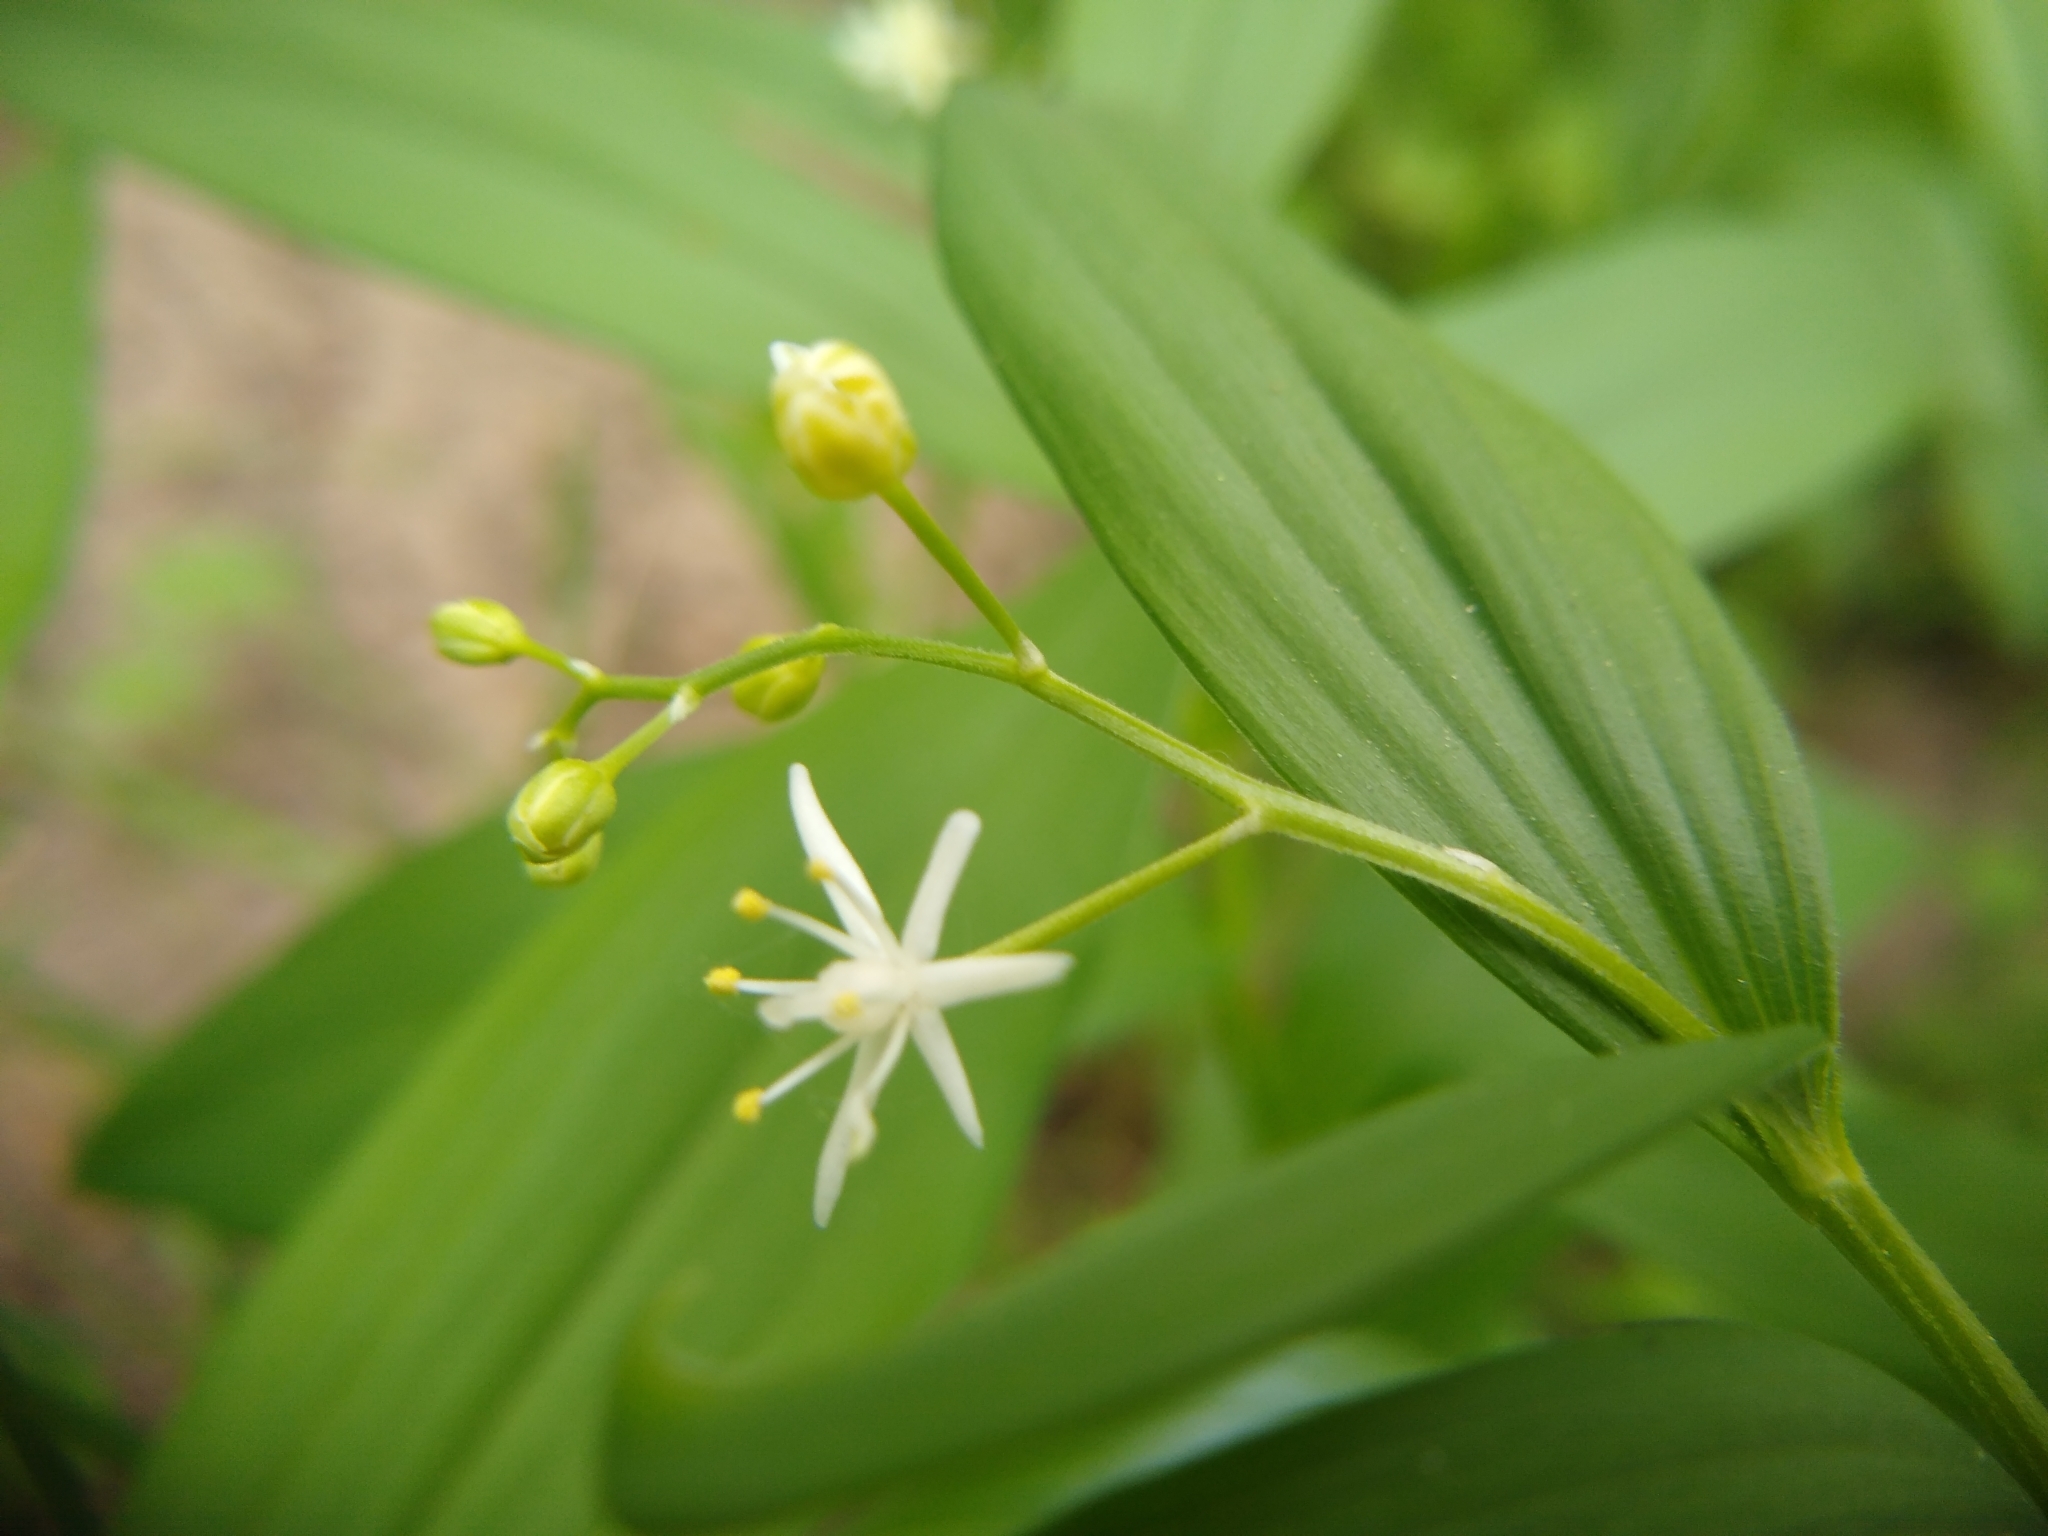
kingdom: Plantae
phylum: Tracheophyta
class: Liliopsida
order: Asparagales
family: Asparagaceae
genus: Maianthemum
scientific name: Maianthemum stellatum
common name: Little false solomon's seal
